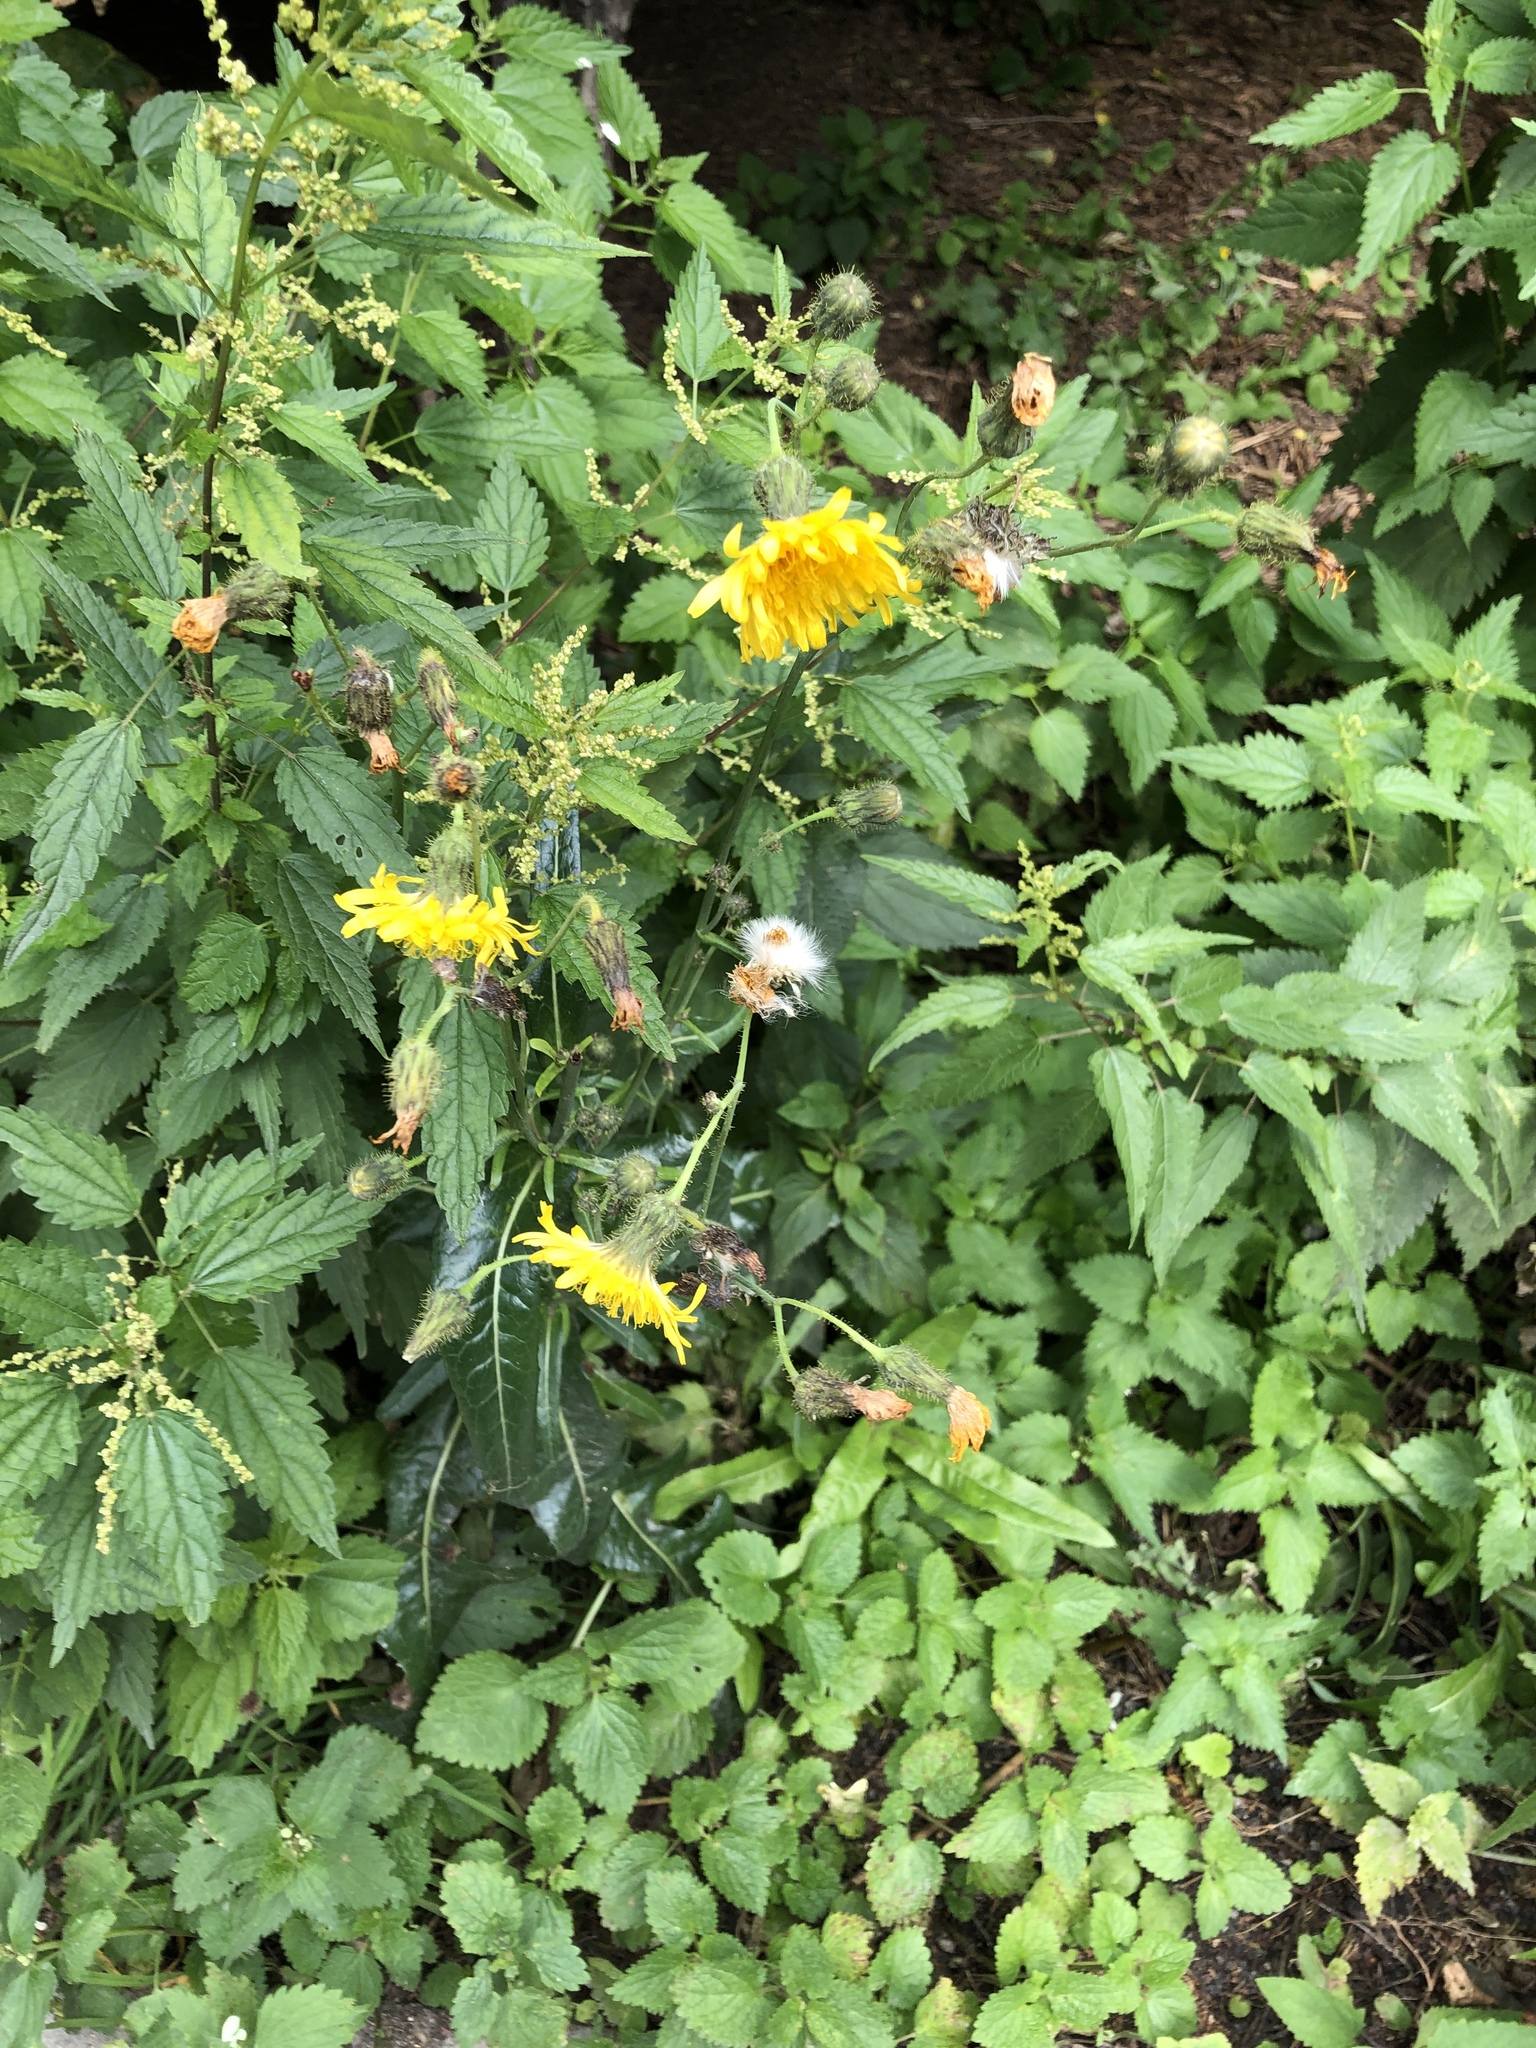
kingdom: Plantae
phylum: Tracheophyta
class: Magnoliopsida
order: Asterales
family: Asteraceae
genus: Sonchus
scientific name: Sonchus arvensis
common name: Perennial sow-thistle
